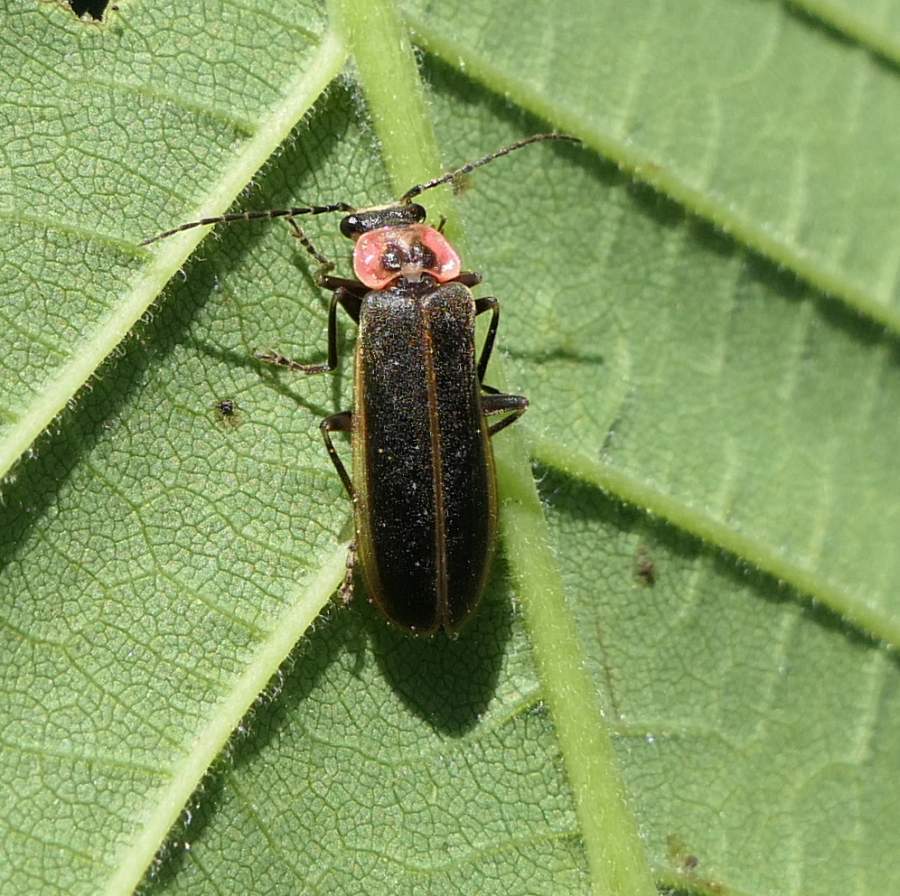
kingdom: Animalia
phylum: Arthropoda
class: Insecta
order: Coleoptera
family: Cantharidae
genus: Podabrus
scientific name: Podabrus brevicollis
